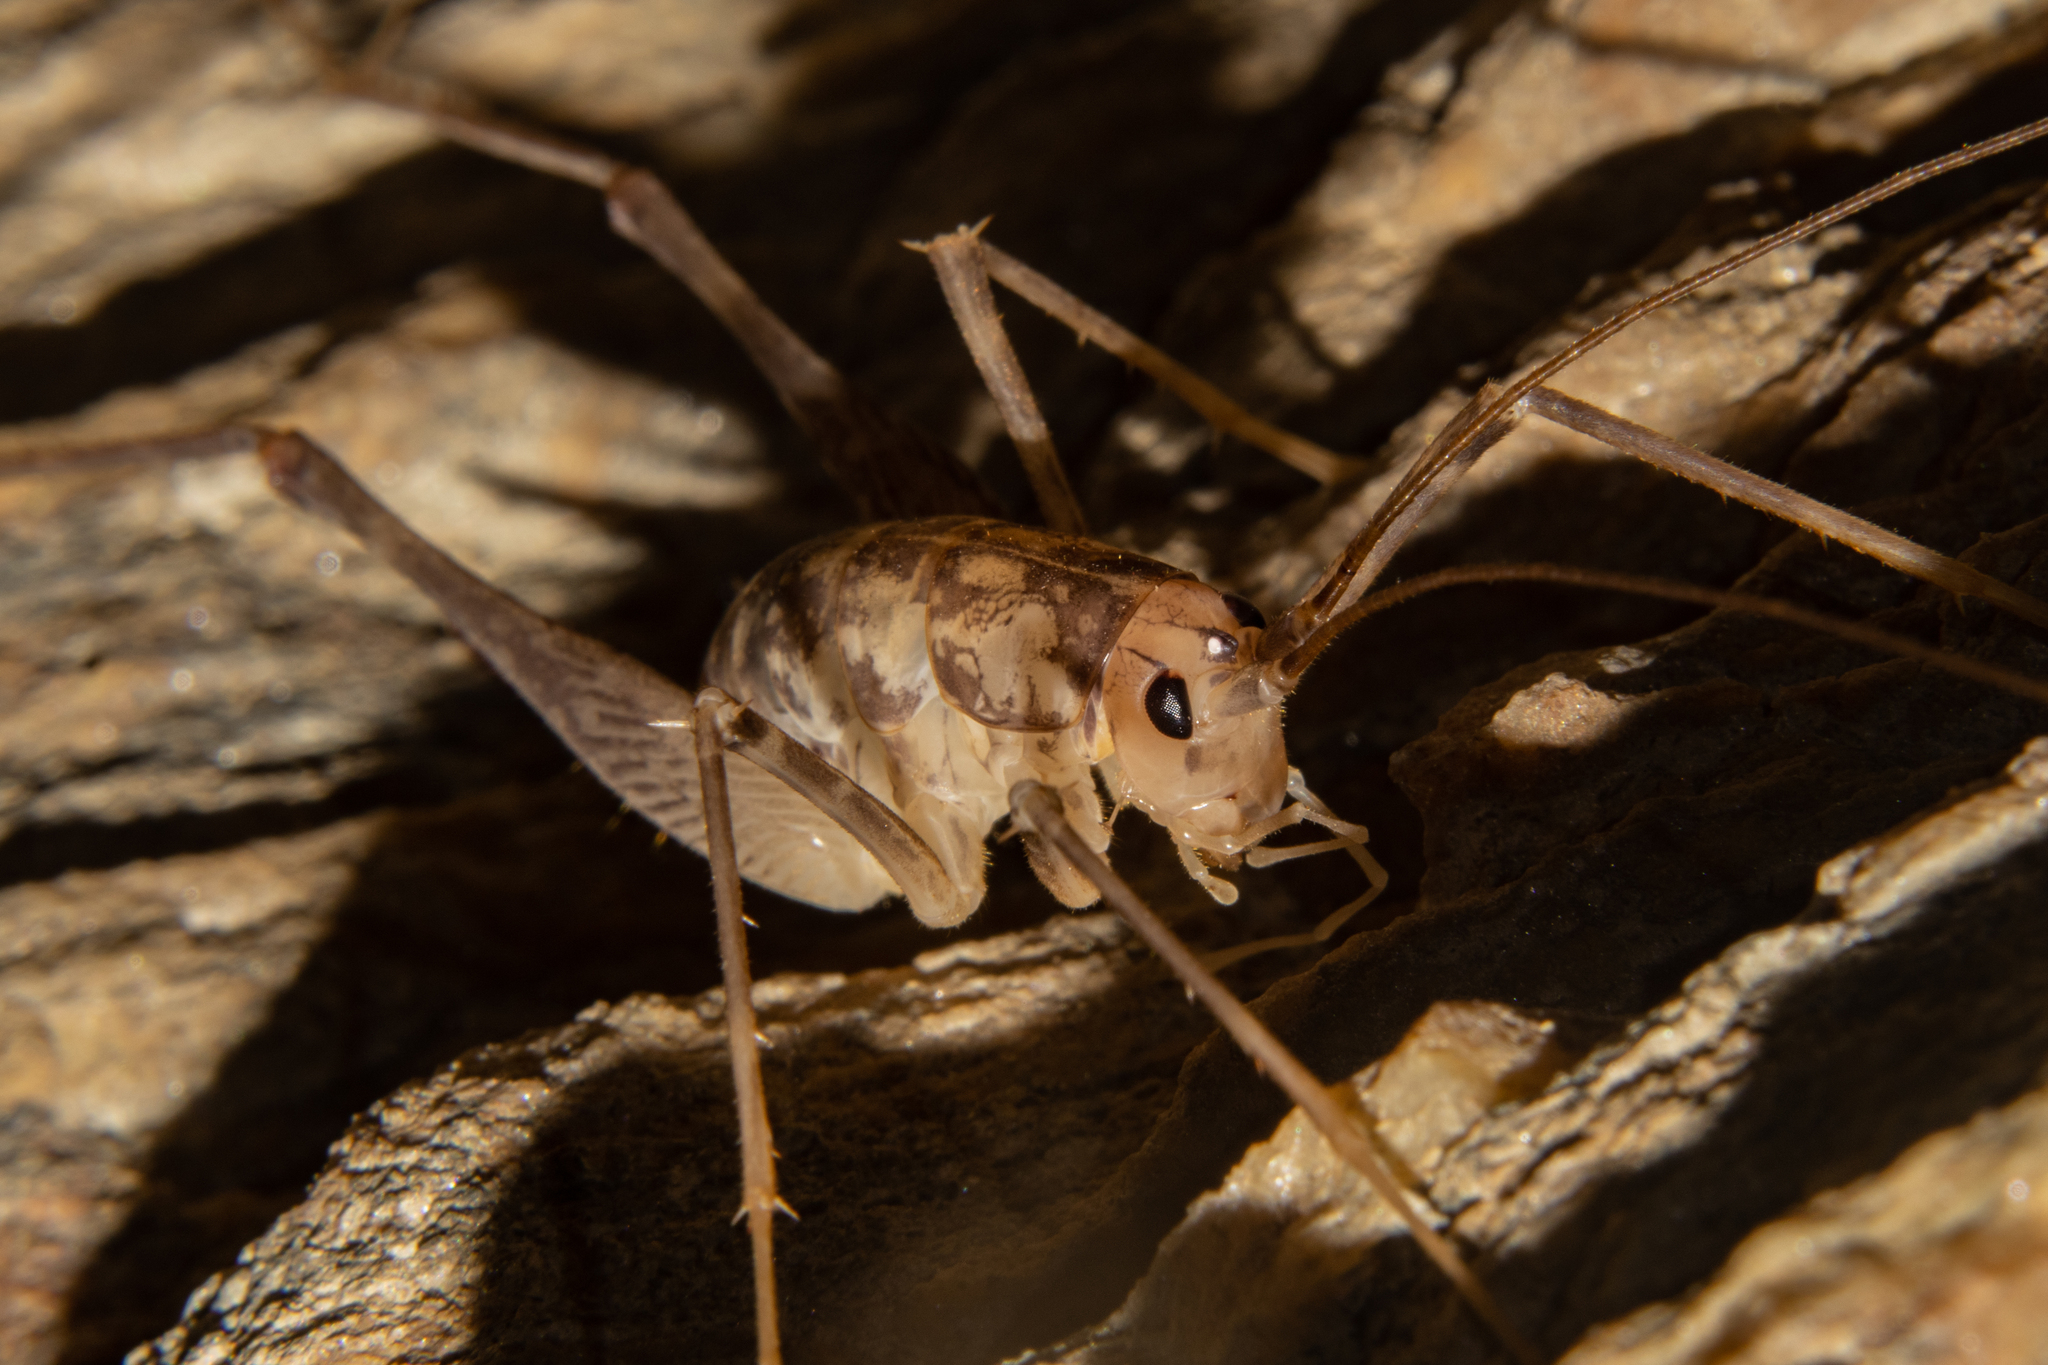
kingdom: Animalia
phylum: Arthropoda
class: Insecta
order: Orthoptera
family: Rhaphidophoridae
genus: Pleioplectron
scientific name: Pleioplectron thomsoni
